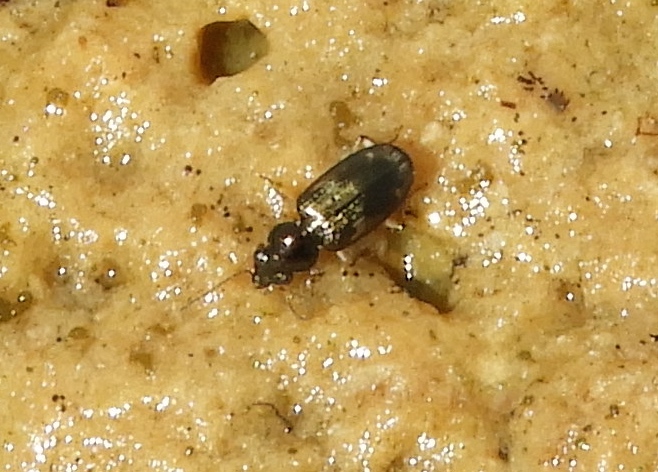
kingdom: Animalia
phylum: Arthropoda
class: Insecta
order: Coleoptera
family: Carabidae
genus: Bembidion
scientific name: Bembidion
